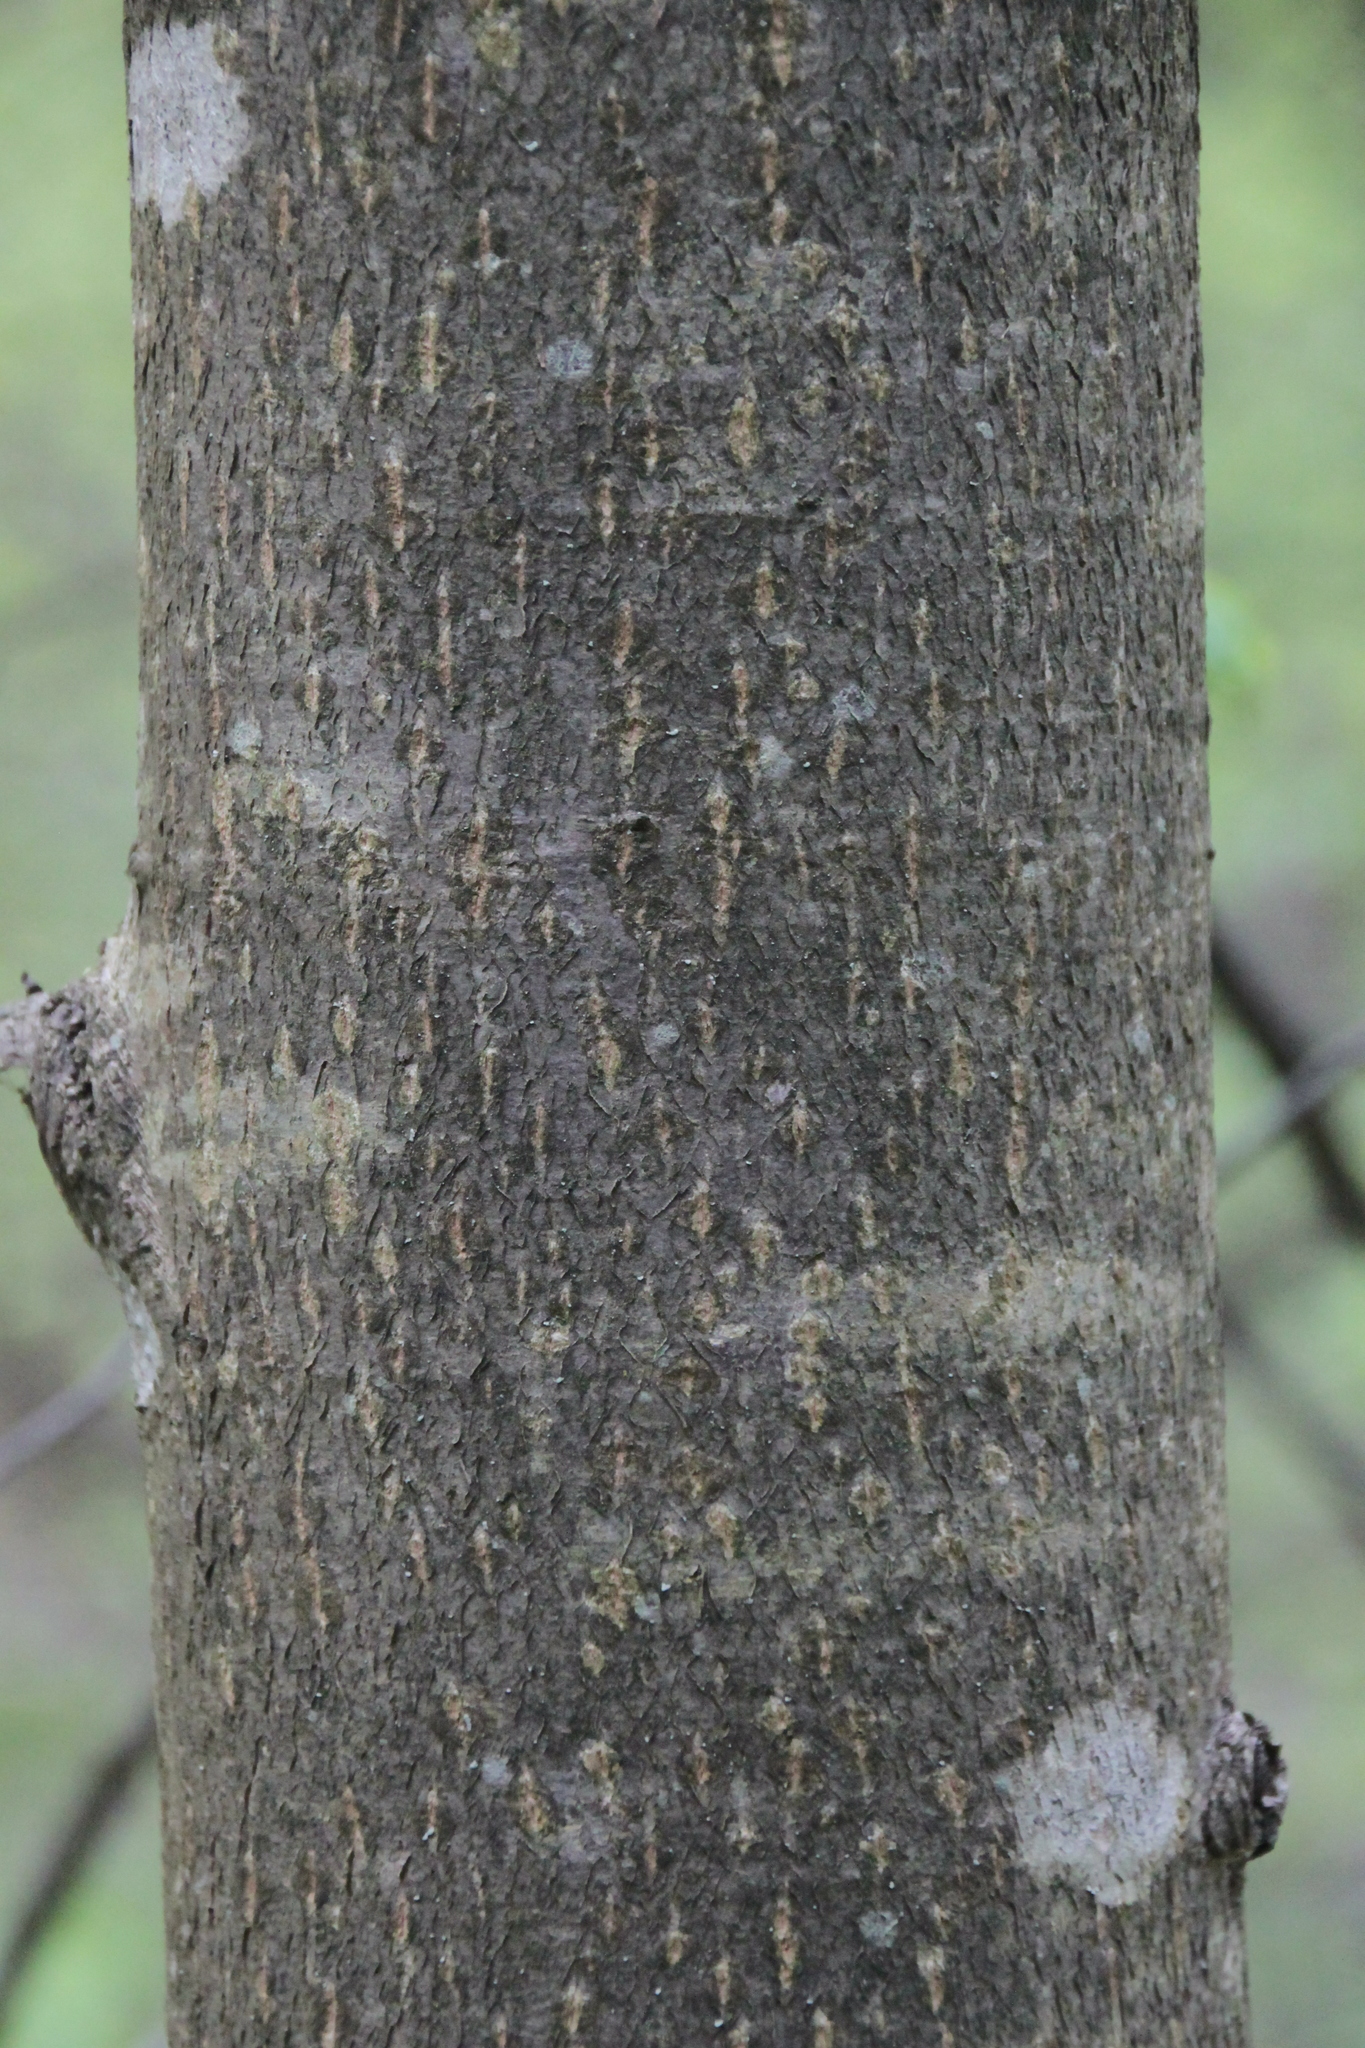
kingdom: Plantae
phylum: Tracheophyta
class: Magnoliopsida
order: Malvales
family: Malvaceae
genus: Tilia
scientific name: Tilia cordata
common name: Small-leaved lime
